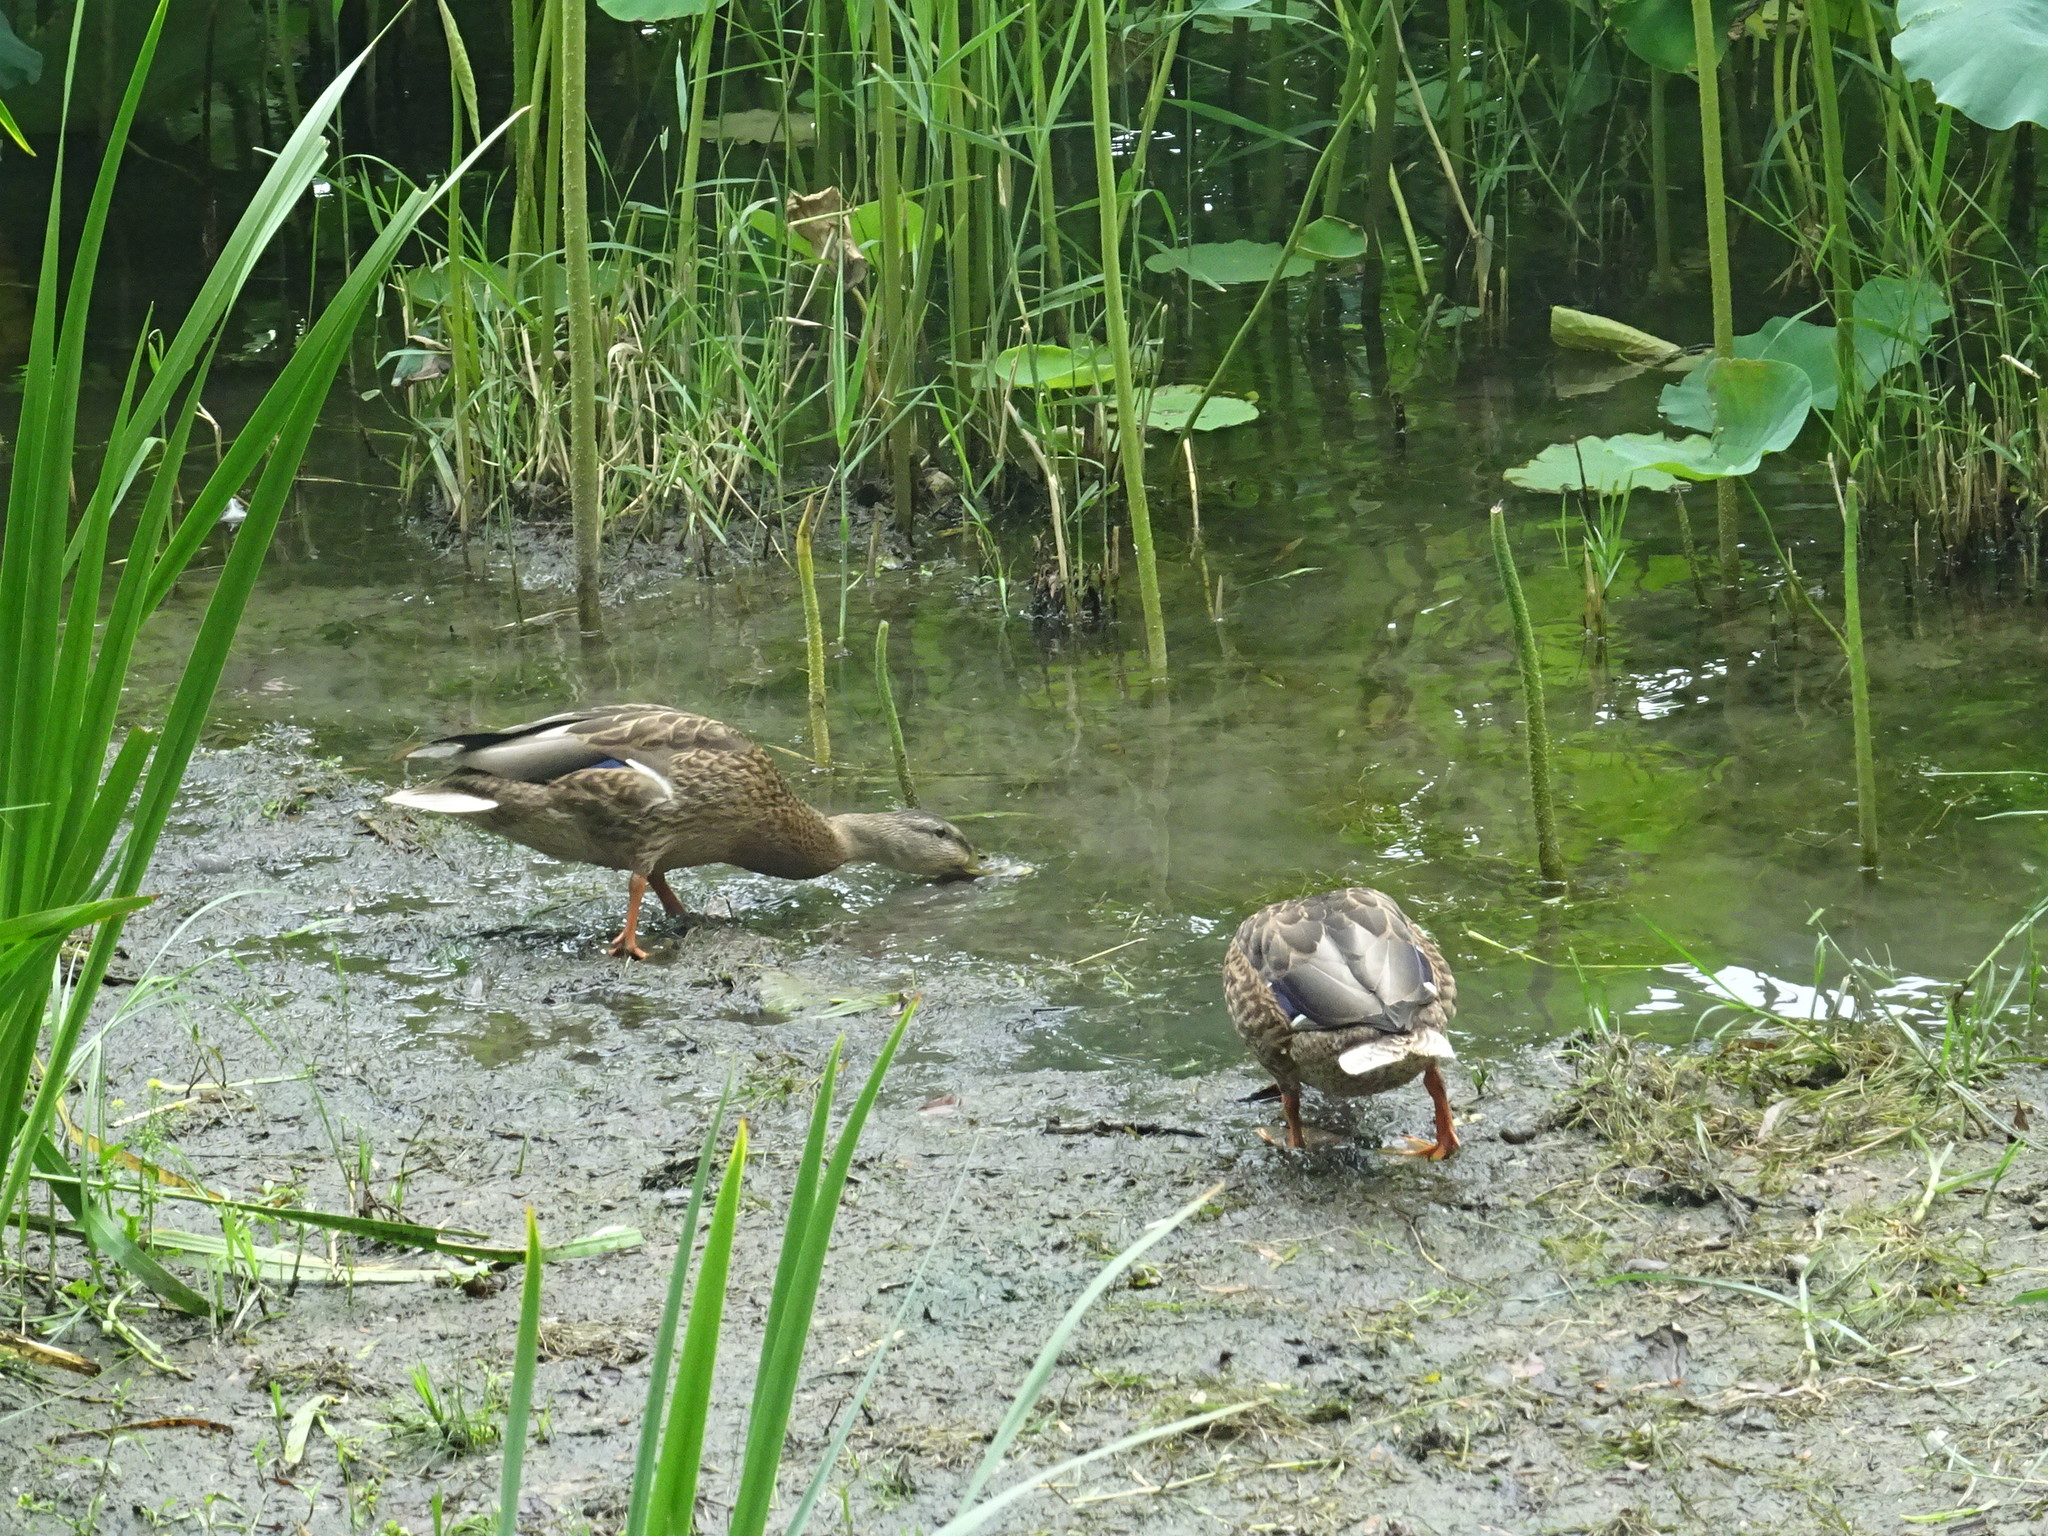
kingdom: Animalia
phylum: Chordata
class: Aves
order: Anseriformes
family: Anatidae
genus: Anas
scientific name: Anas platyrhynchos
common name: Mallard
